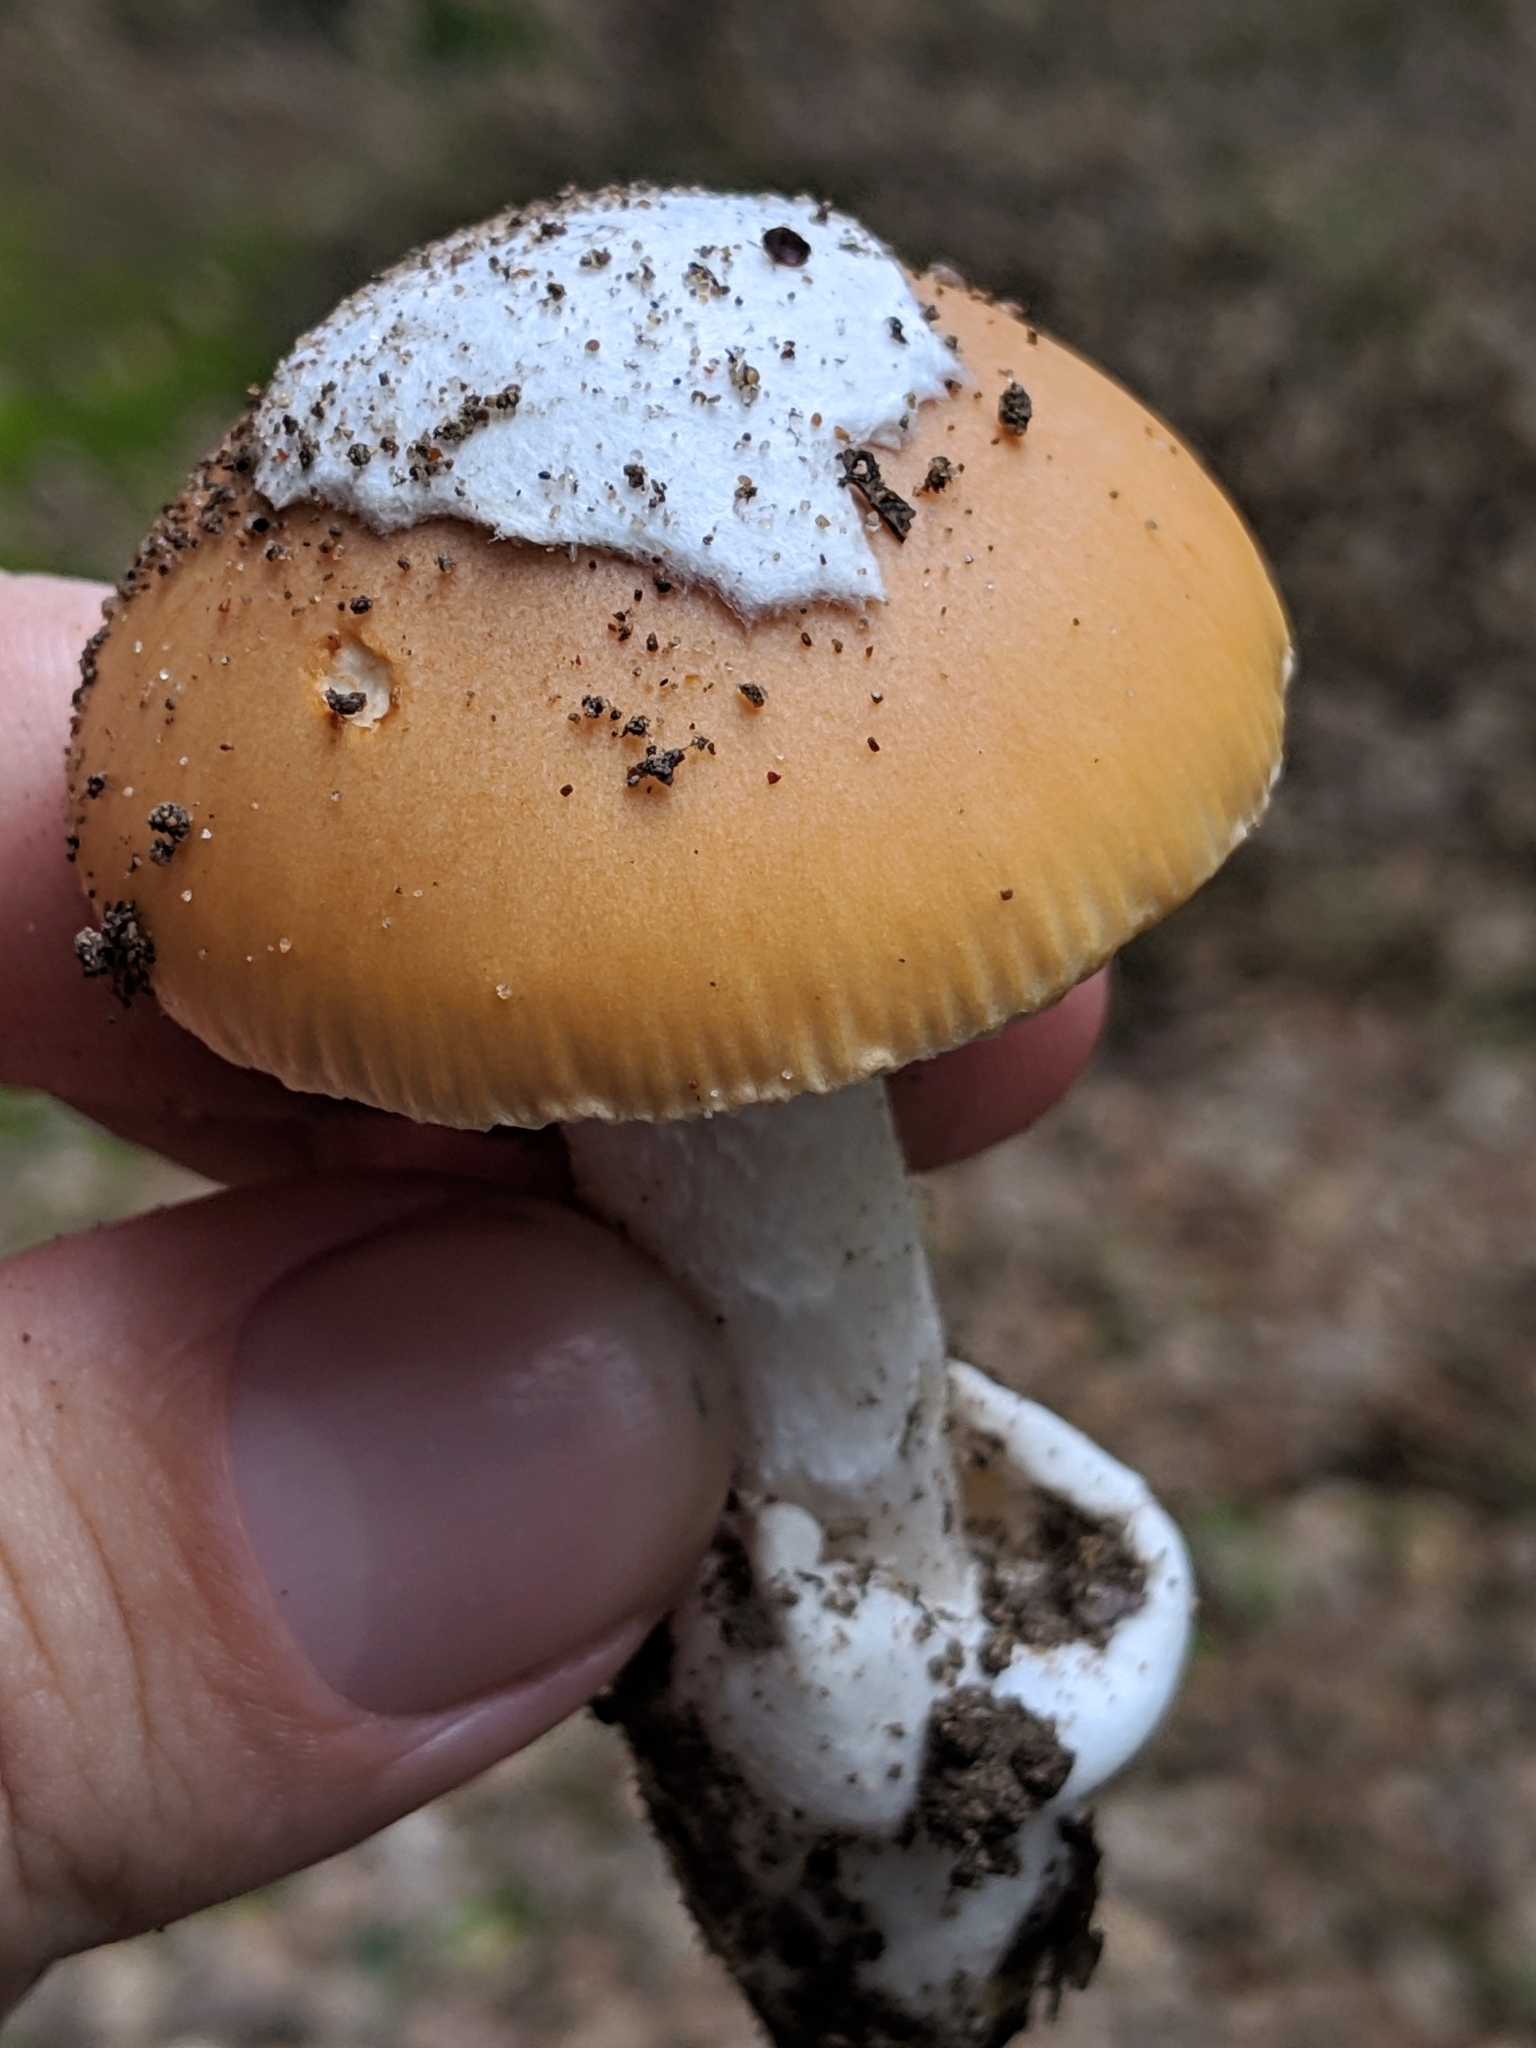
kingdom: Fungi
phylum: Basidiomycota
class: Agaricomycetes
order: Agaricales
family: Amanitaceae
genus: Amanita
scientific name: Amanita velosa
